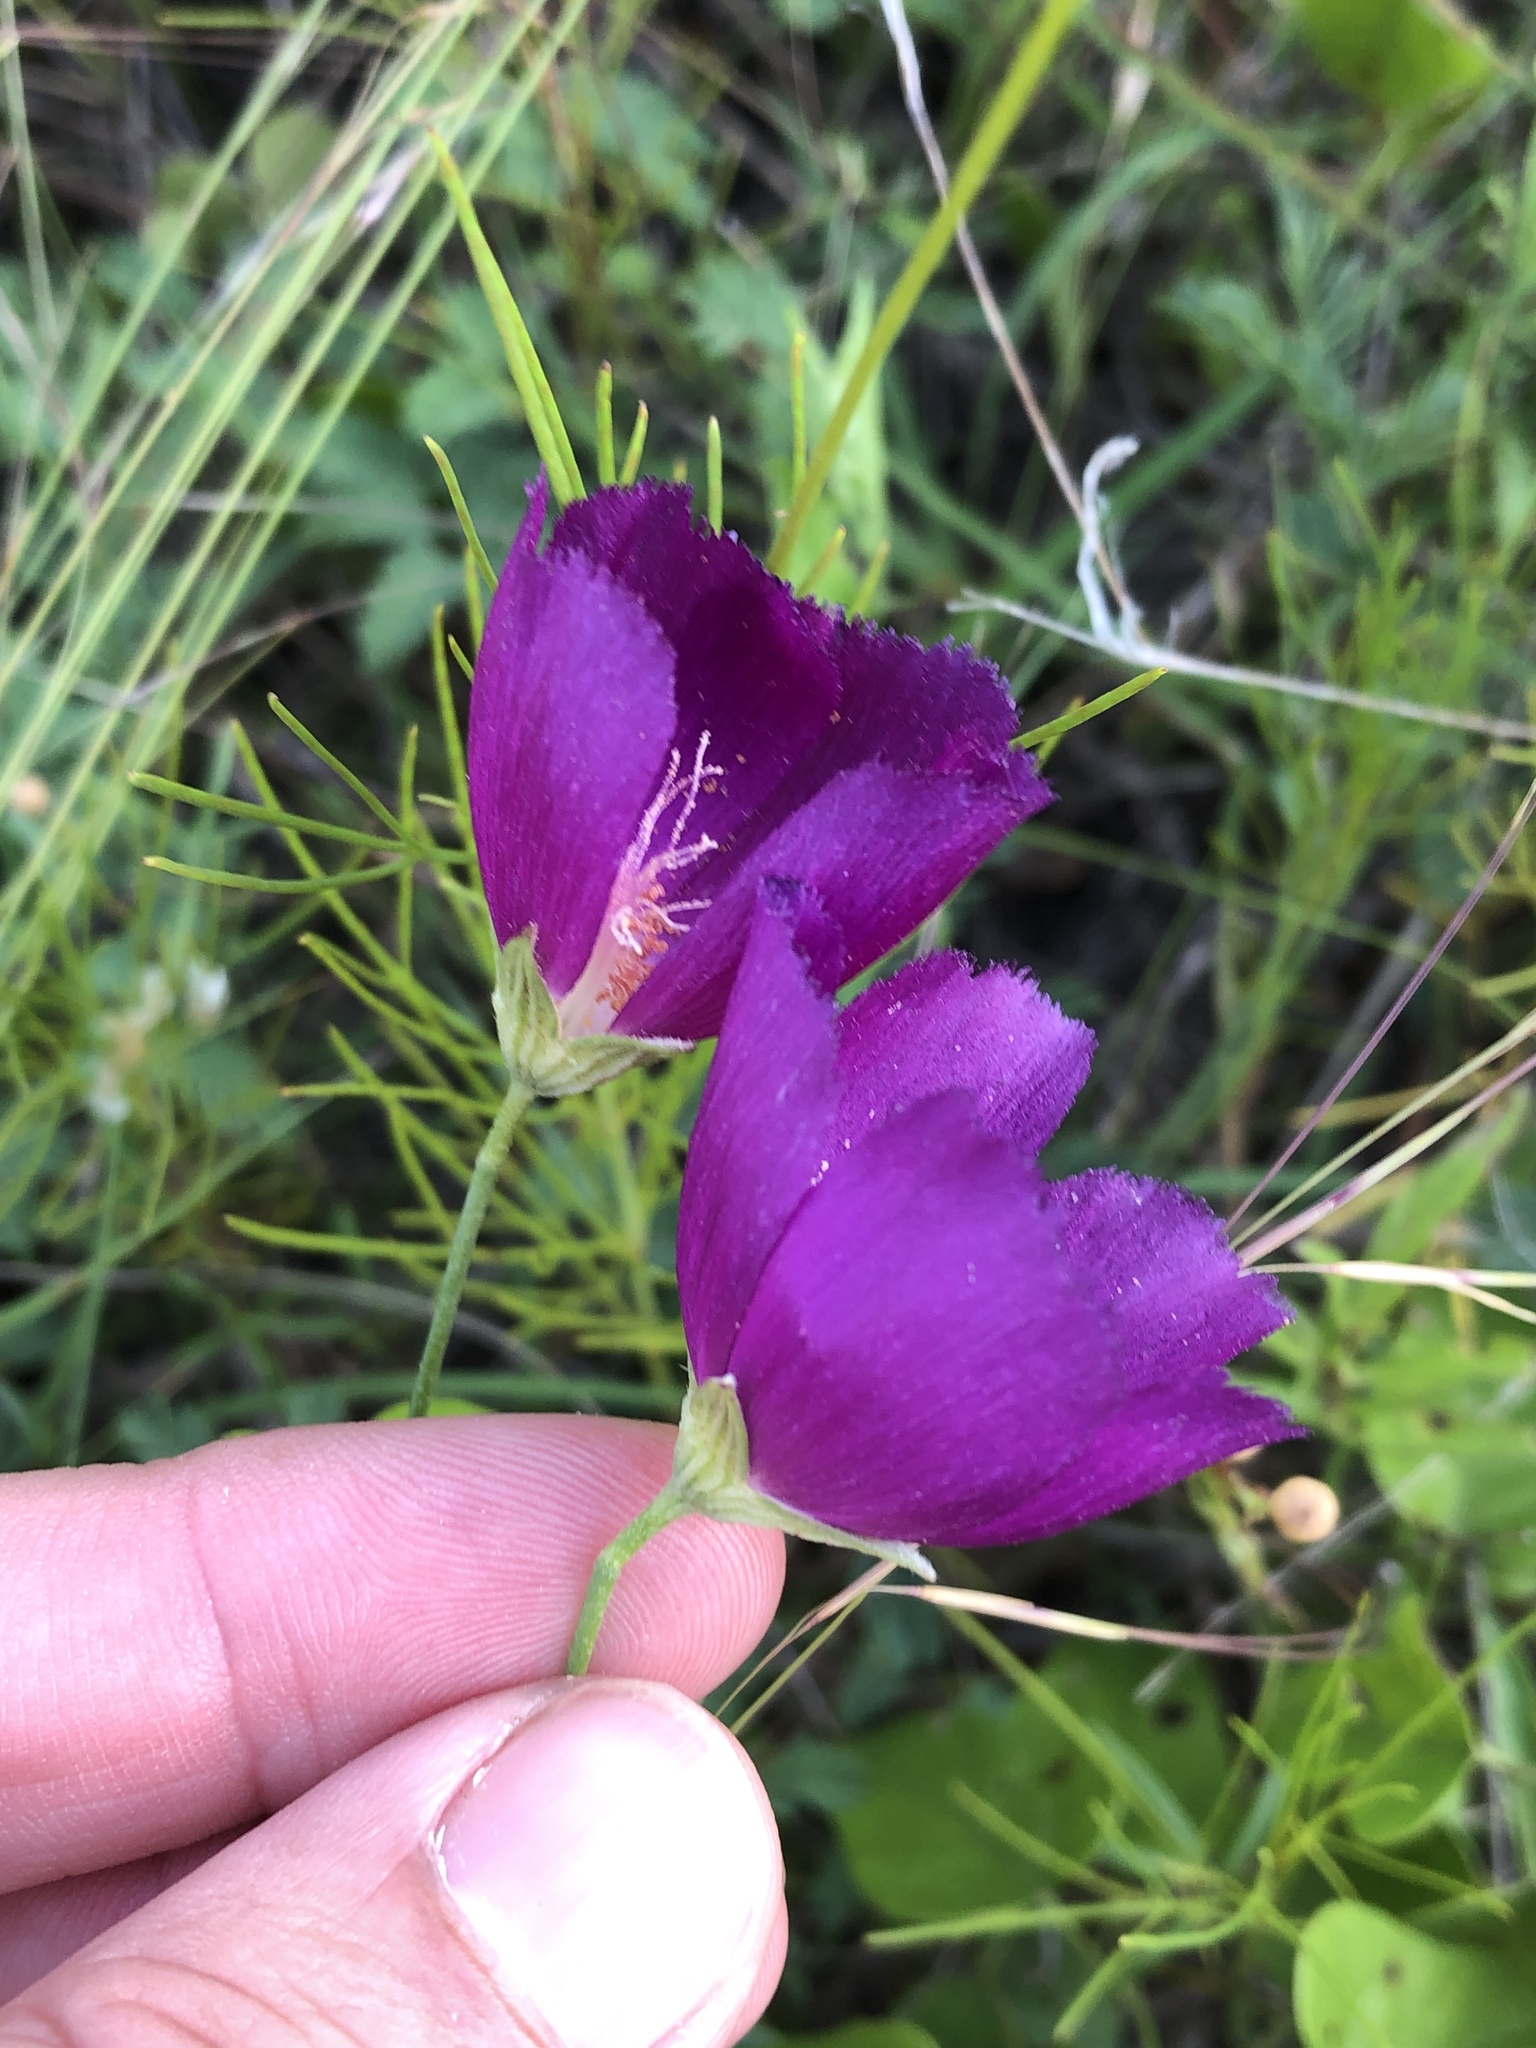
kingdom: Plantae
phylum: Tracheophyta
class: Magnoliopsida
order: Malvales
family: Malvaceae
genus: Callirhoe
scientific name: Callirhoe pedata
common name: Finger poppy-mallow
